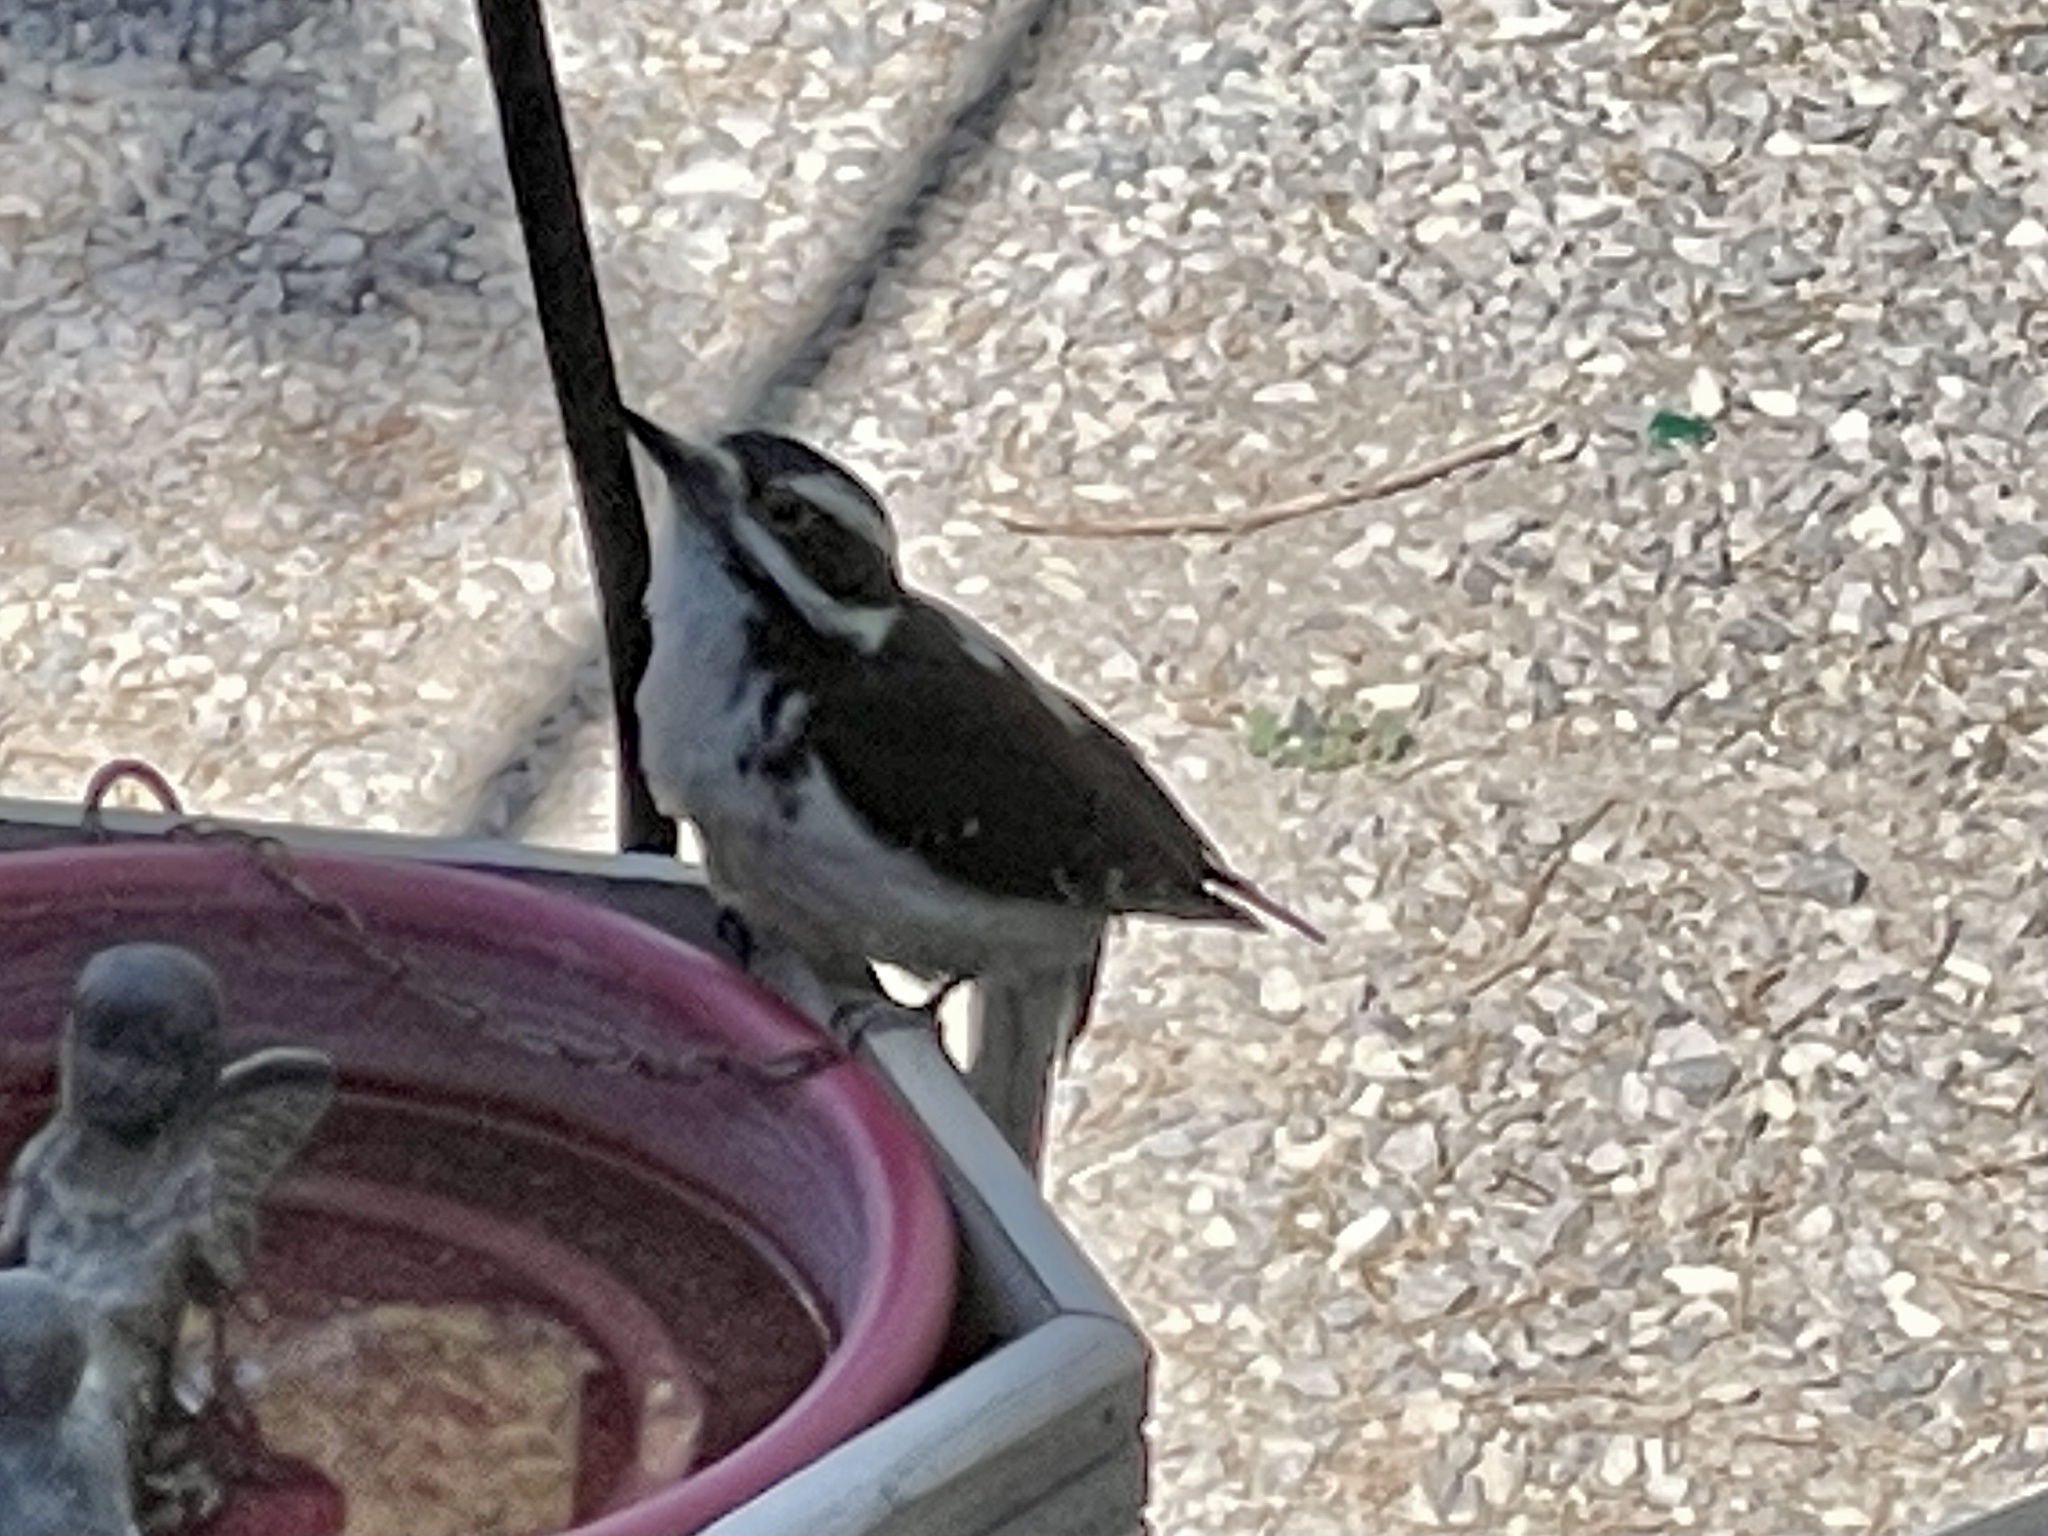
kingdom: Animalia
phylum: Chordata
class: Aves
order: Piciformes
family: Picidae
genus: Leuconotopicus
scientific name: Leuconotopicus villosus
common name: Hairy woodpecker
